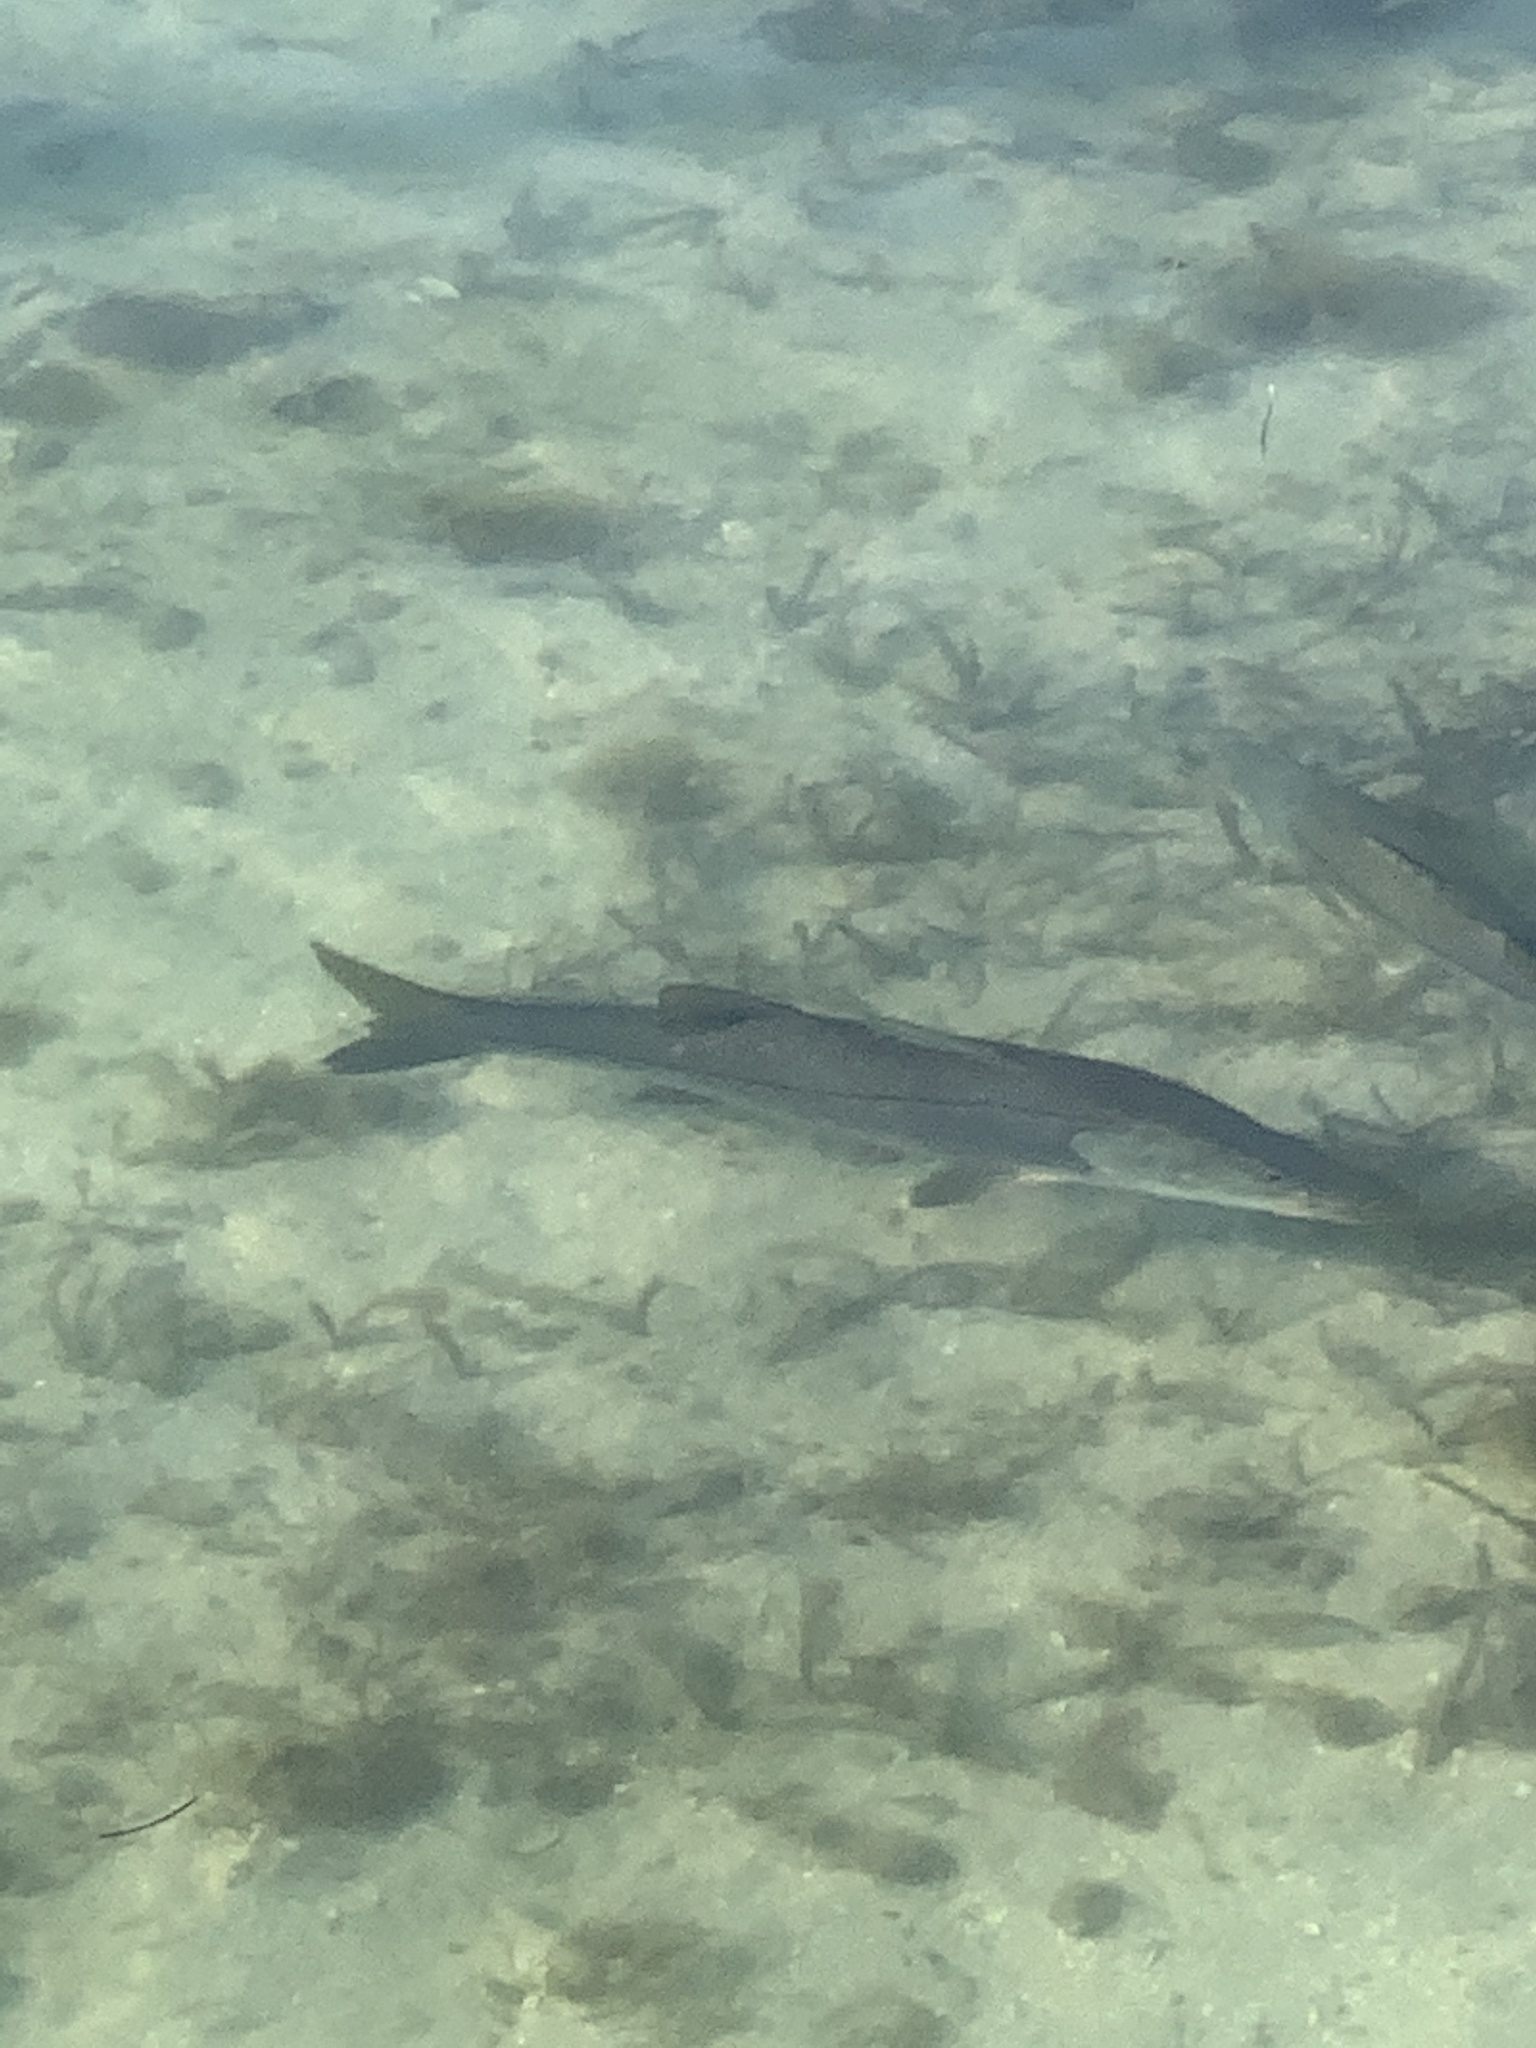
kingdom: Animalia
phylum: Chordata
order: Perciformes
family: Centropomidae
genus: Centropomus
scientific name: Centropomus undecimalis
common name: Snook
